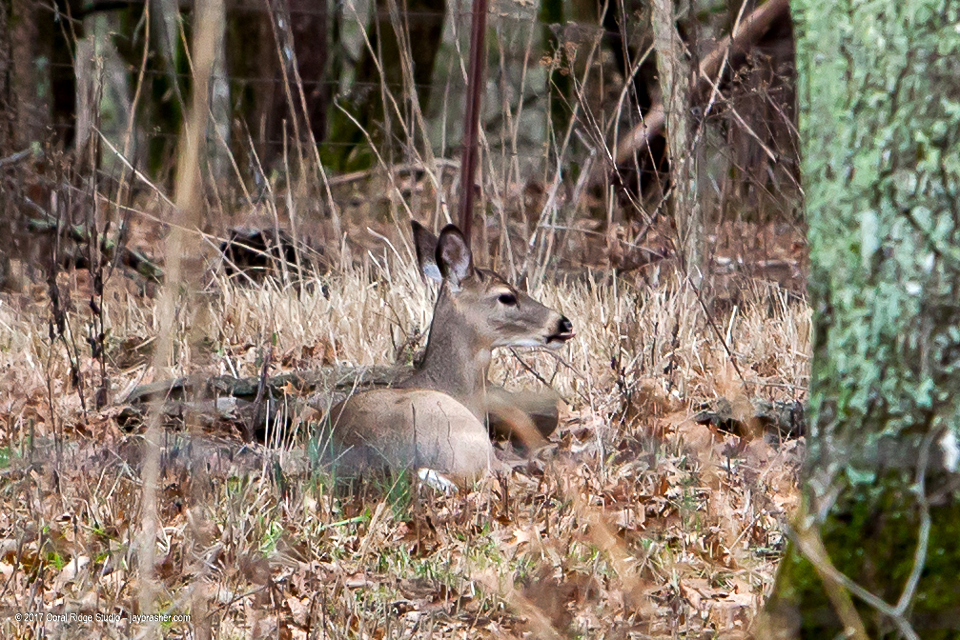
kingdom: Animalia
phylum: Chordata
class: Mammalia
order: Artiodactyla
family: Cervidae
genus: Odocoileus
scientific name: Odocoileus virginianus
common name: White-tailed deer
